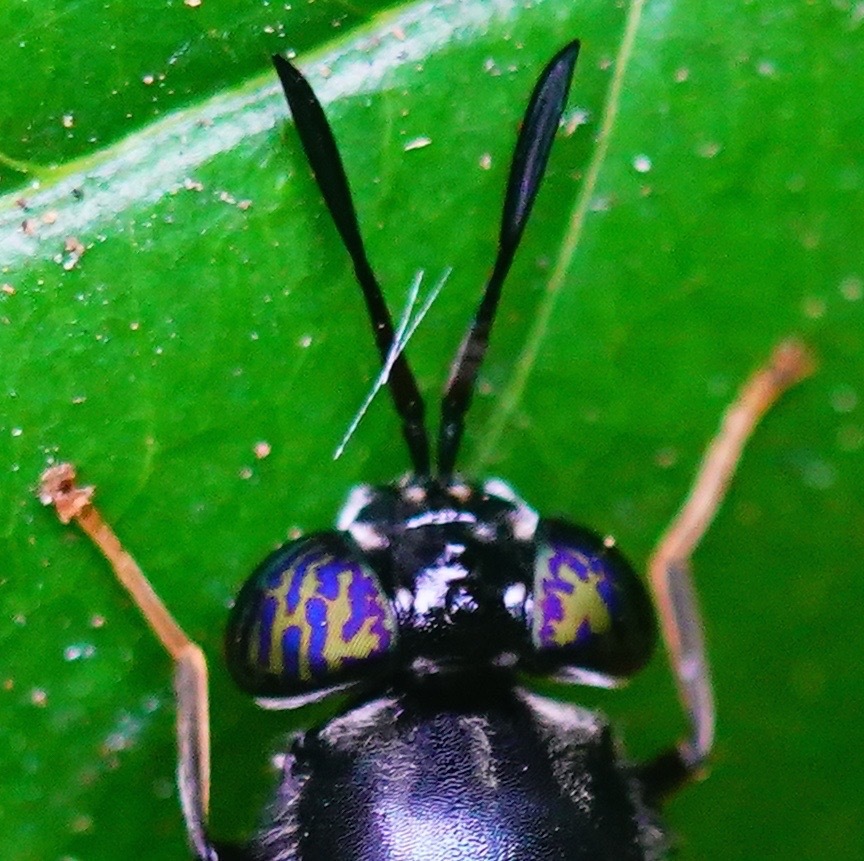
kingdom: Animalia
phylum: Arthropoda
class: Insecta
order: Diptera
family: Stratiomyidae
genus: Hermetia
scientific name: Hermetia illucens
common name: Black soldier fly
